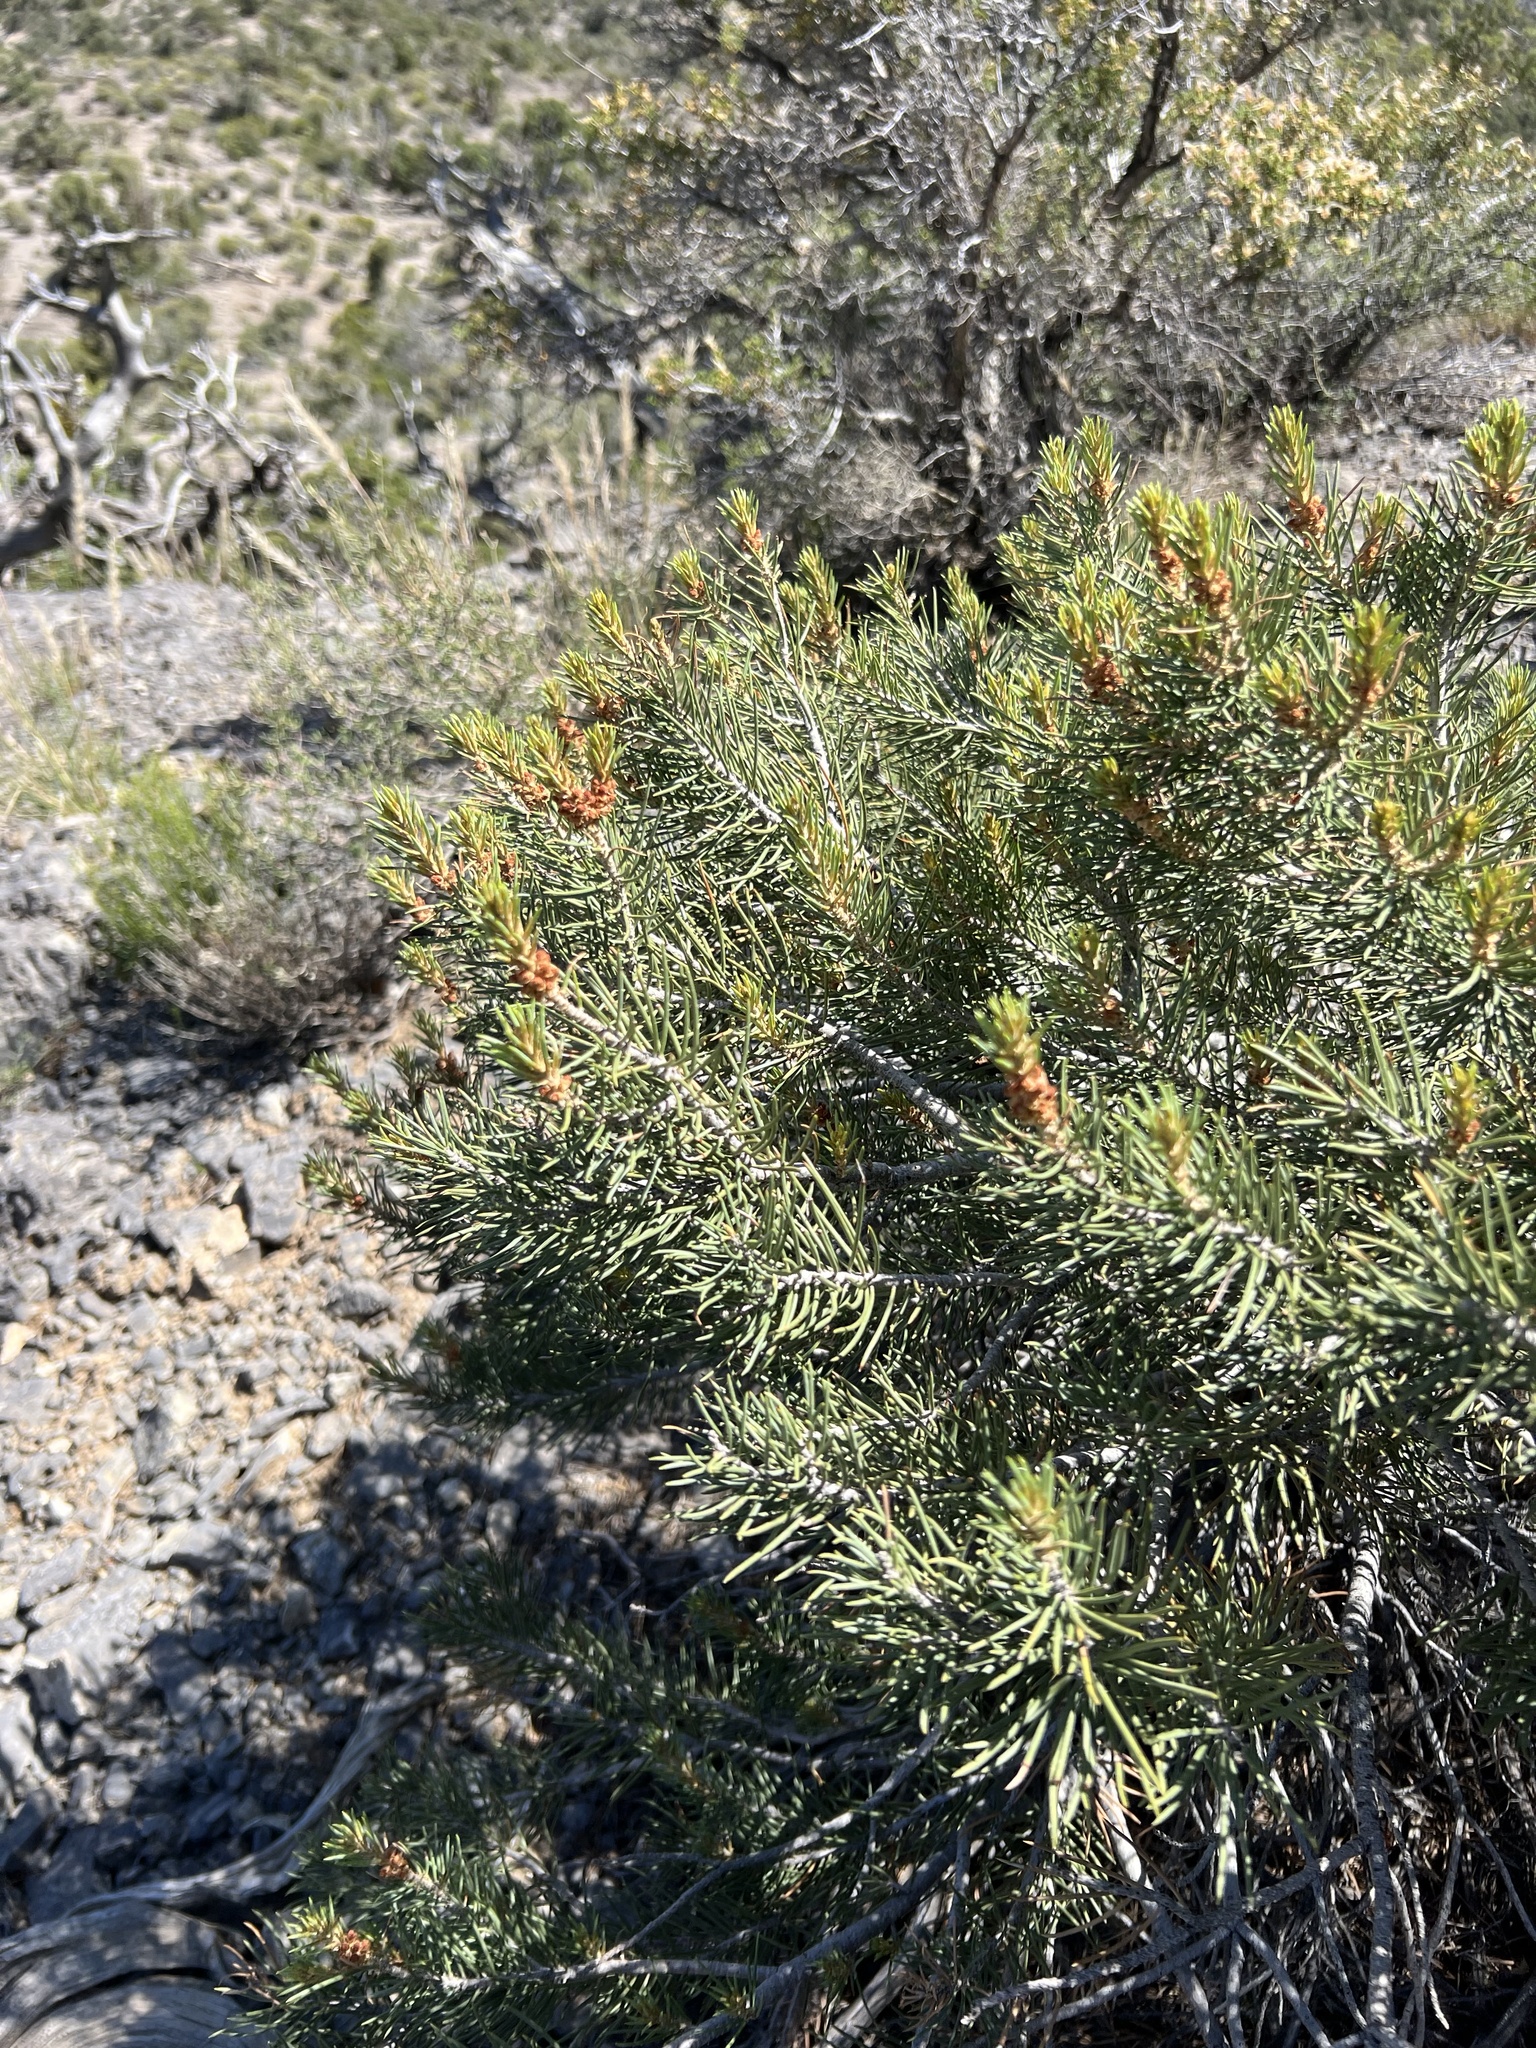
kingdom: Plantae
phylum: Tracheophyta
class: Pinopsida
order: Pinales
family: Pinaceae
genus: Pinus
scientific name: Pinus monophylla
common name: One-leaved nut pine
